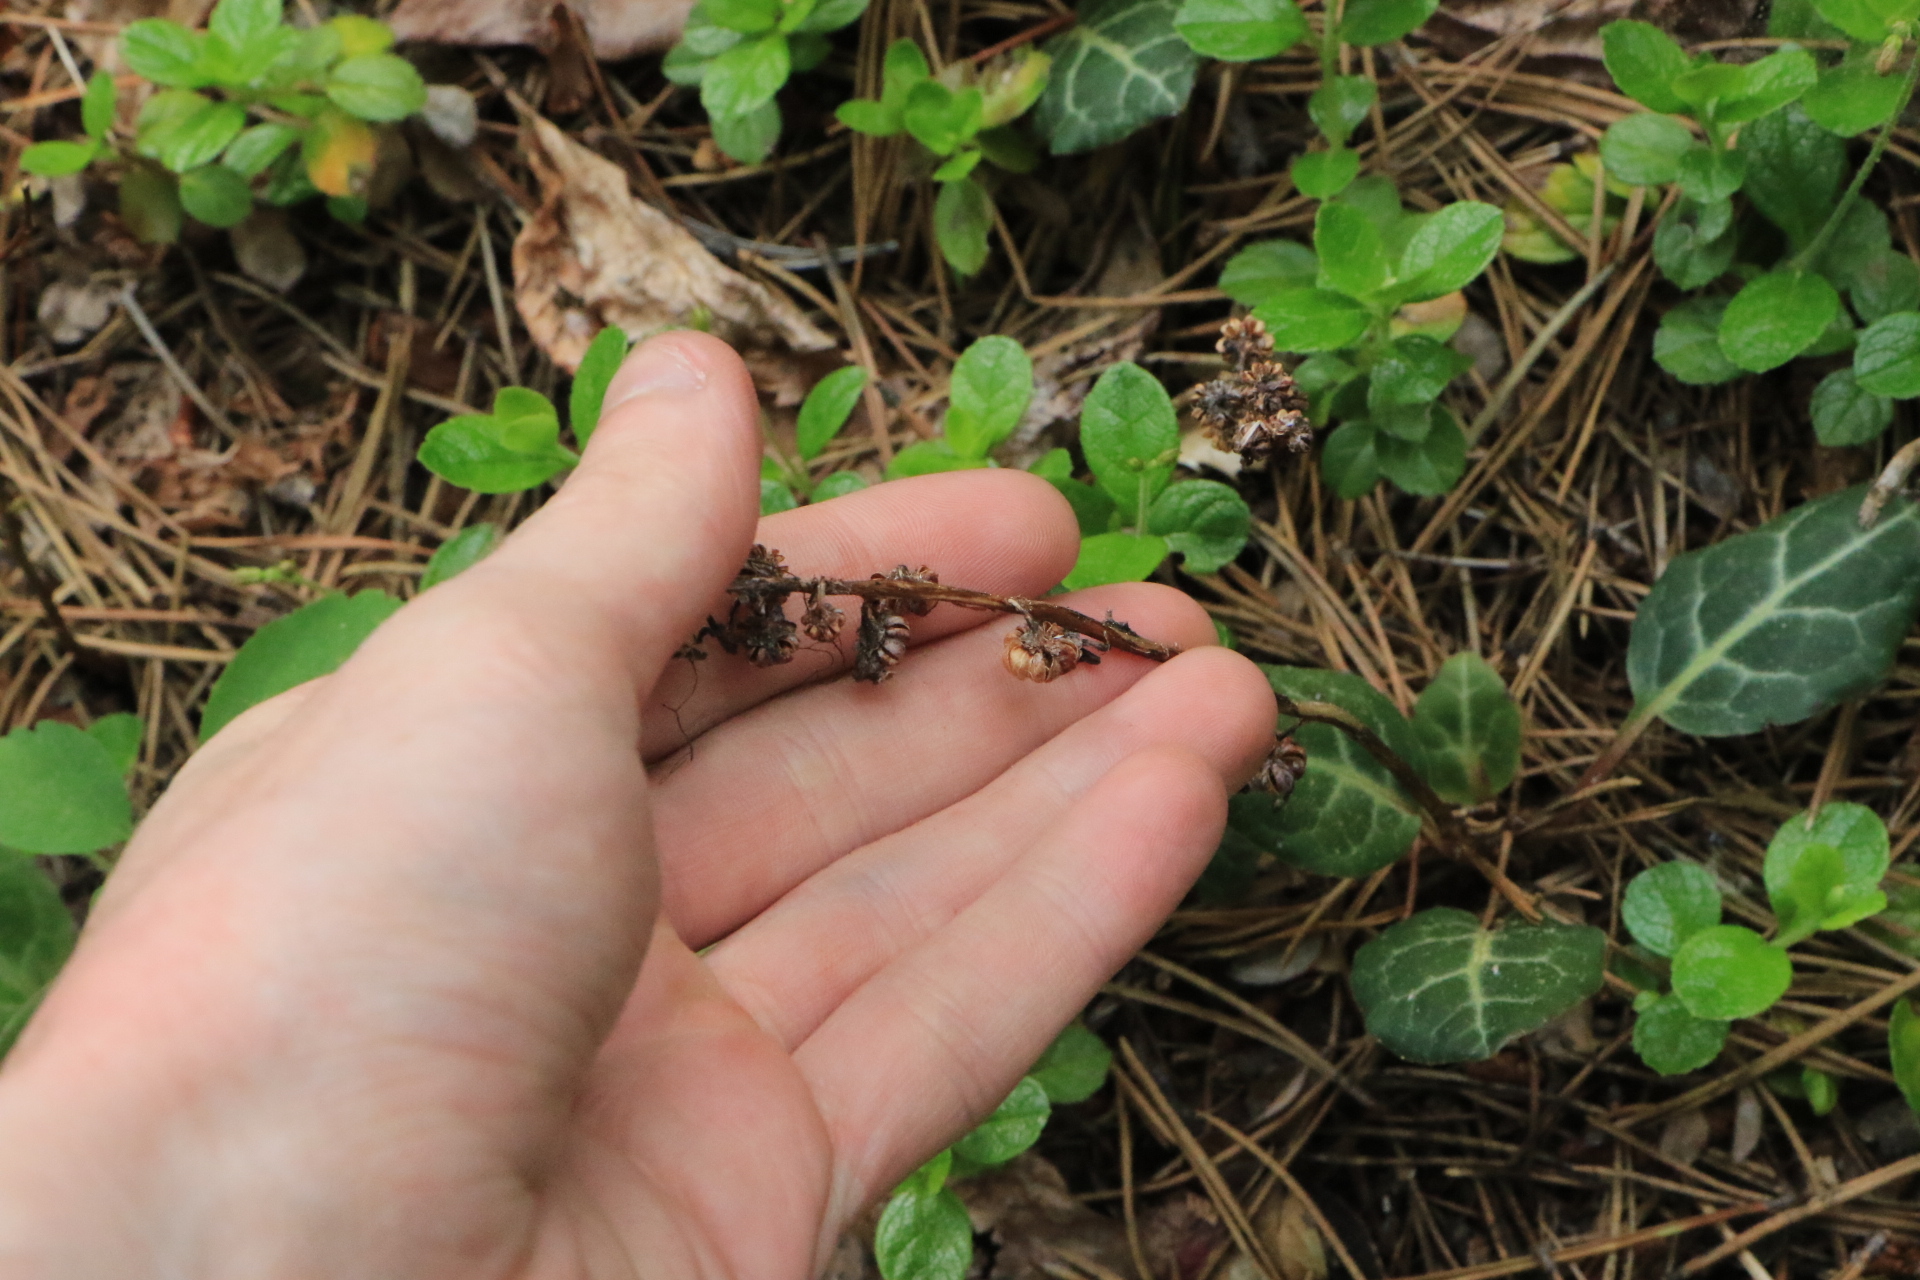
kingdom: Plantae
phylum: Tracheophyta
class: Magnoliopsida
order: Ericales
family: Ericaceae
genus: Pyrola
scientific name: Pyrola picta
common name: White-vein wintergreen
